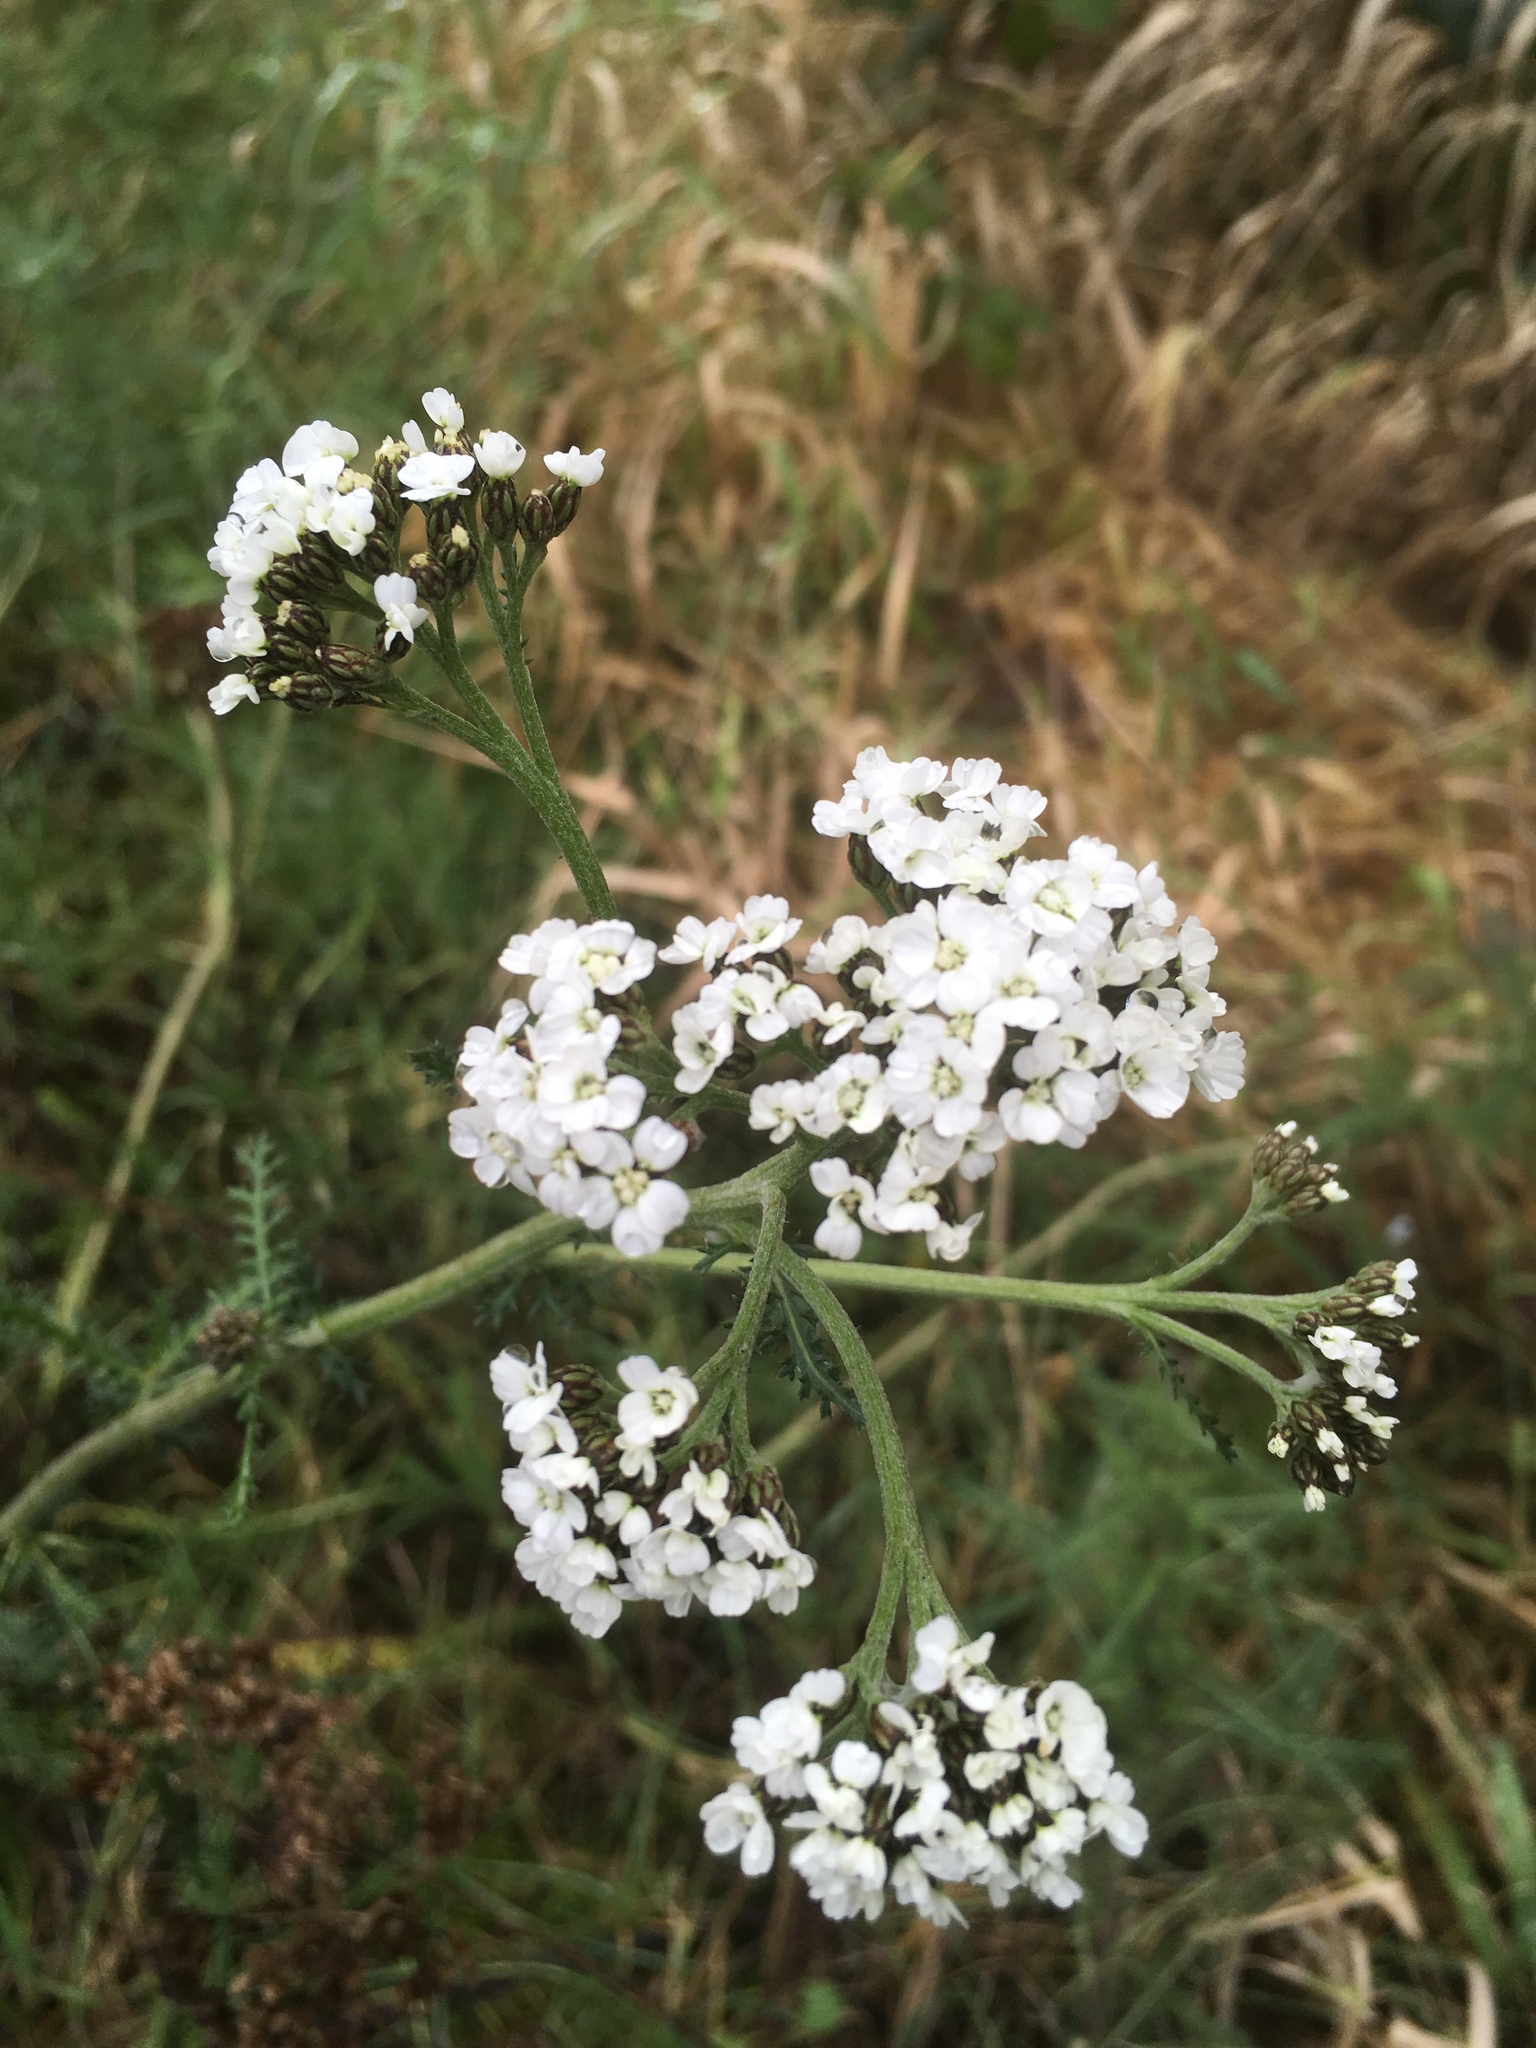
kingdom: Plantae
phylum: Tracheophyta
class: Magnoliopsida
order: Asterales
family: Asteraceae
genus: Achillea
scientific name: Achillea millefolium
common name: Yarrow
